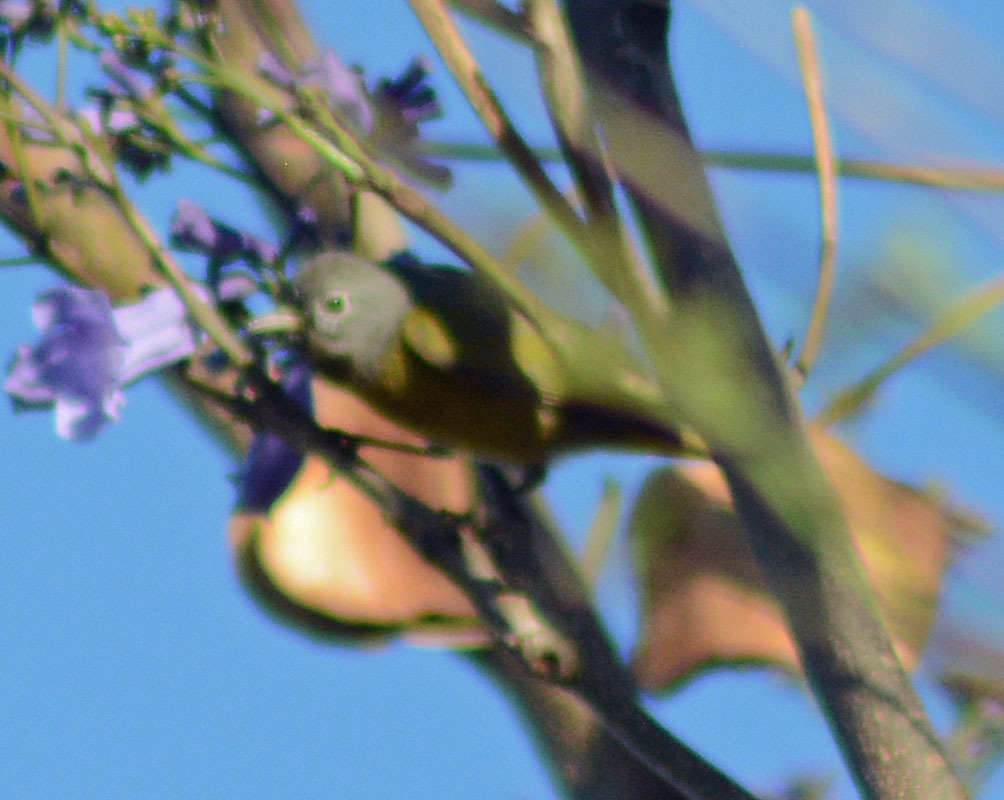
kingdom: Animalia
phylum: Chordata
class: Aves
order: Passeriformes
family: Parulidae
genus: Leiothlypis
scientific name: Leiothlypis ruficapilla
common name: Nashville warbler
